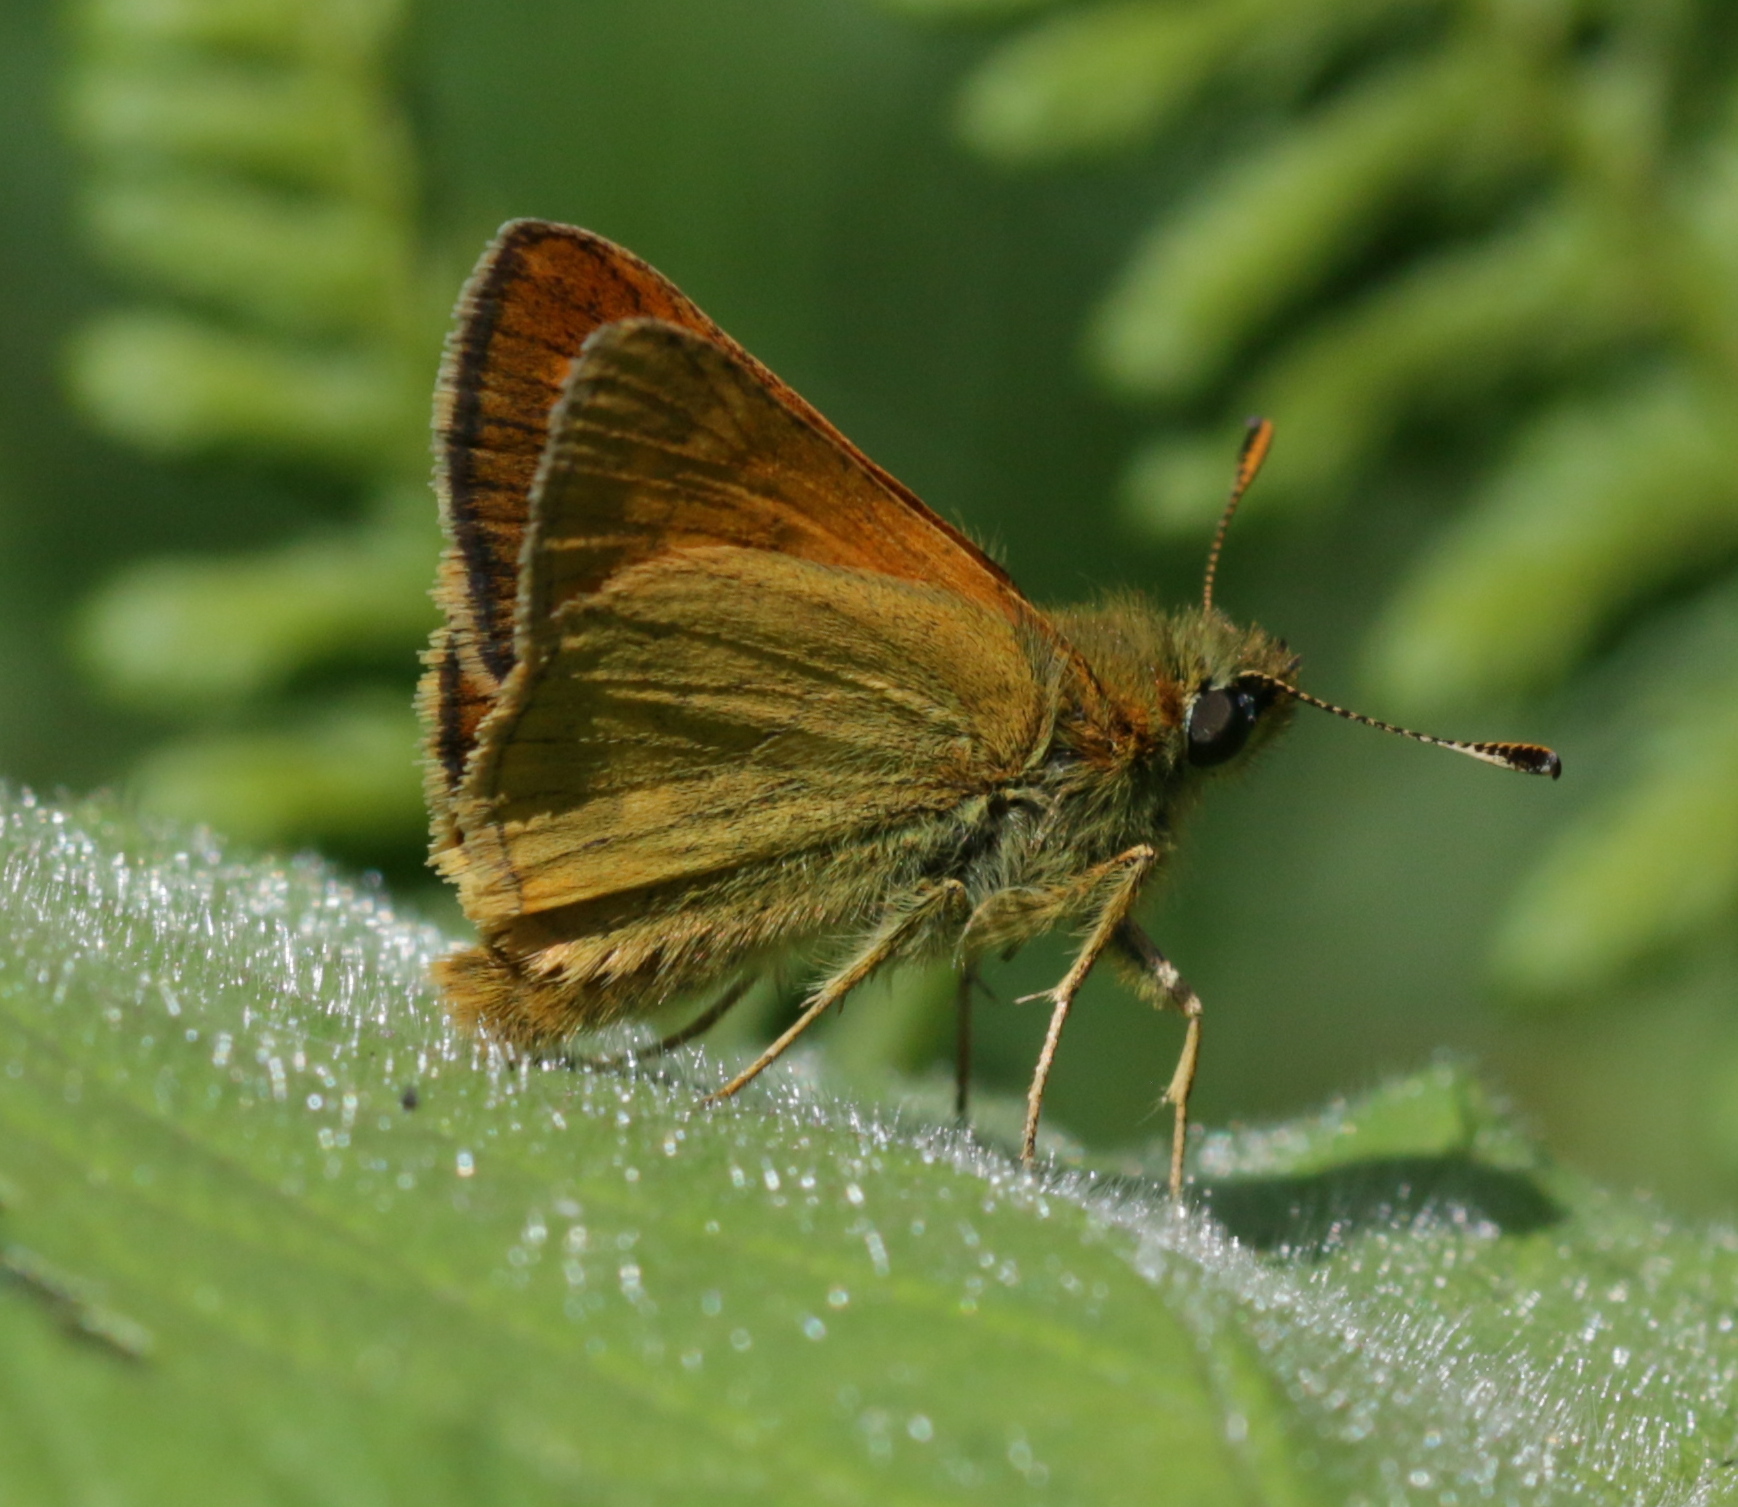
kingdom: Animalia
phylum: Arthropoda
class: Insecta
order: Lepidoptera
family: Hesperiidae
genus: Ochlodes
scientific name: Ochlodes venata
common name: Large skipper
